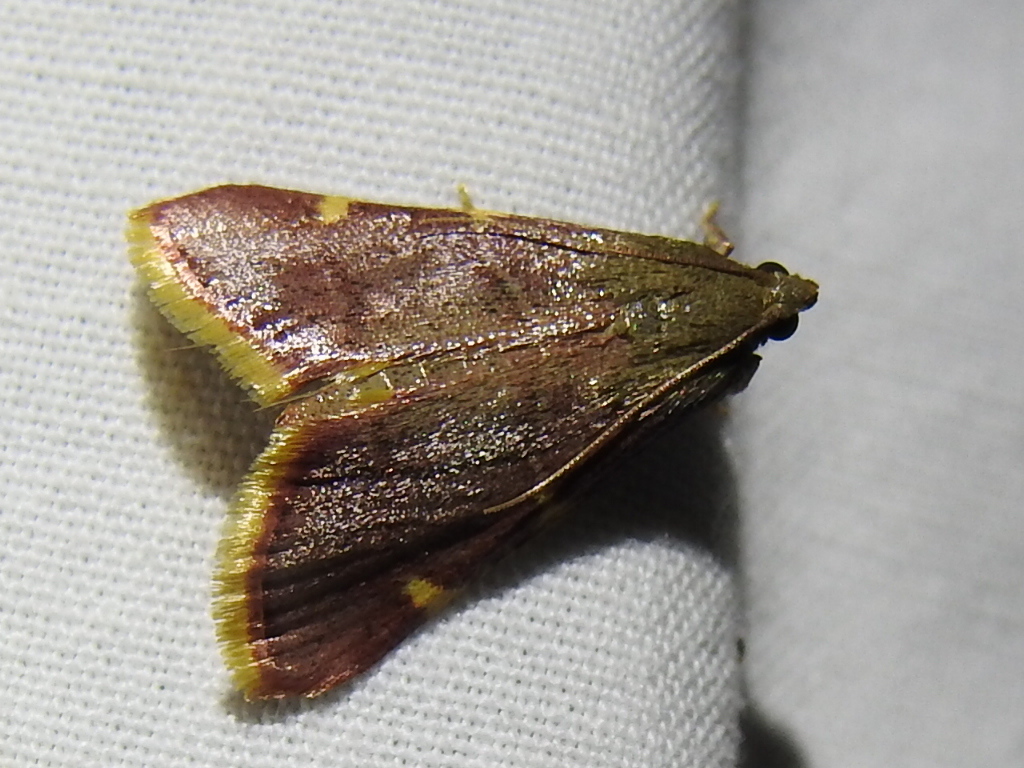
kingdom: Animalia
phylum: Arthropoda
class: Insecta
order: Lepidoptera
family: Pyralidae
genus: Hypsopygia
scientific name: Hypsopygia olinalis
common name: Yellow-fringed dolichomia moth
